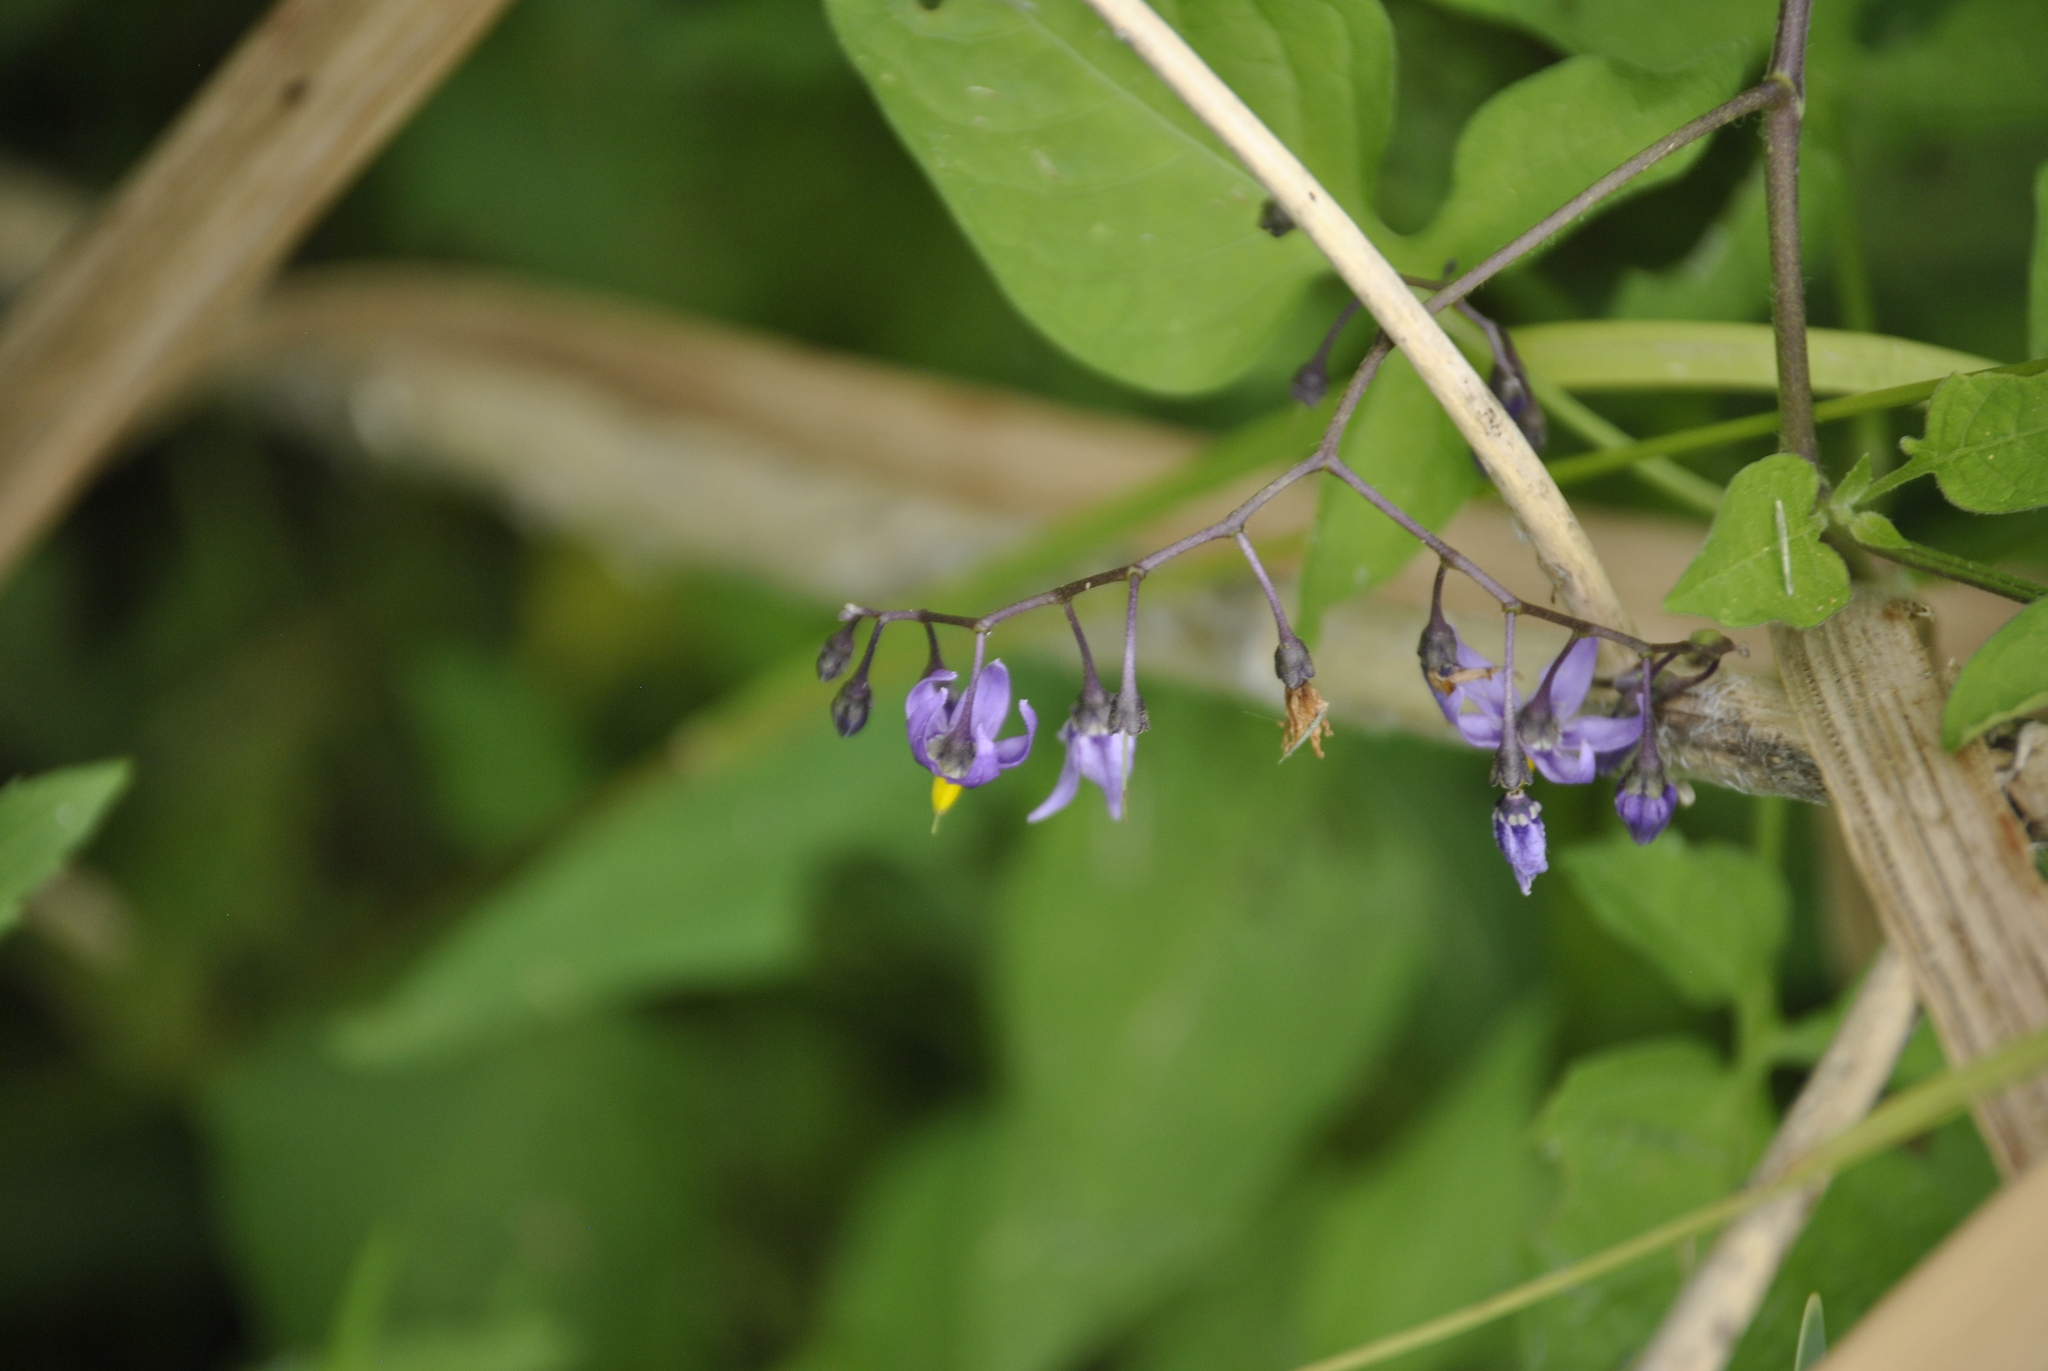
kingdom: Plantae
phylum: Tracheophyta
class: Magnoliopsida
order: Solanales
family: Solanaceae
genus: Solanum
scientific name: Solanum dulcamara
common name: Climbing nightshade
